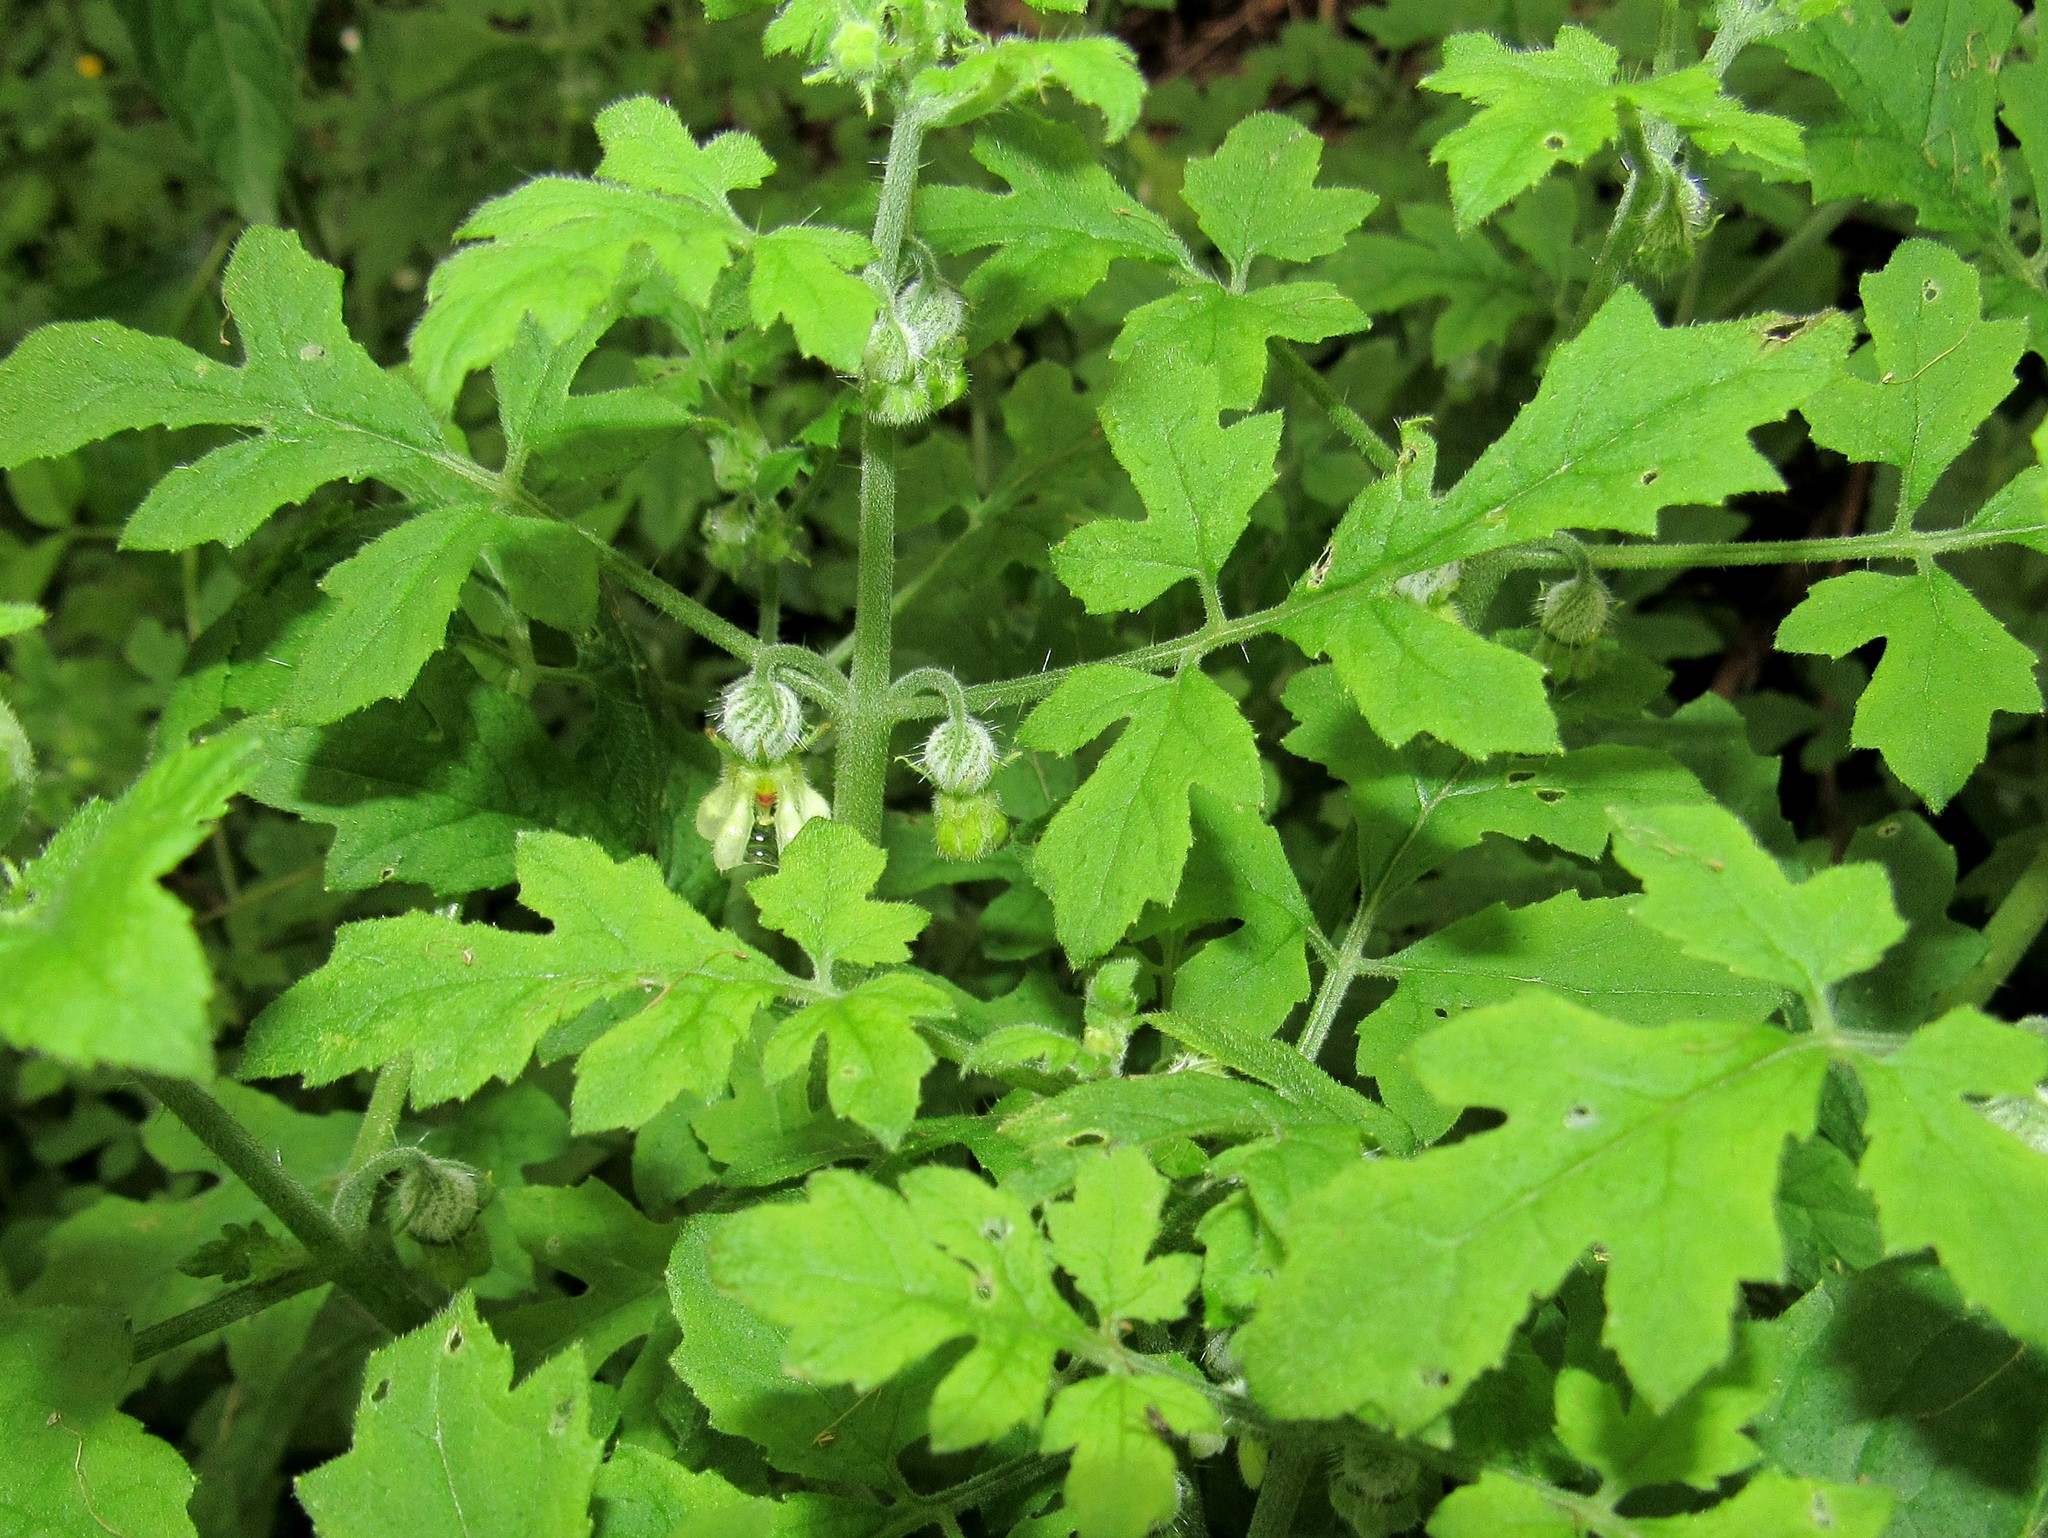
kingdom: Plantae
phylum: Tracheophyta
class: Magnoliopsida
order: Cornales
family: Loasaceae
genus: Blumenbachia
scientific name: Blumenbachia latifolia
